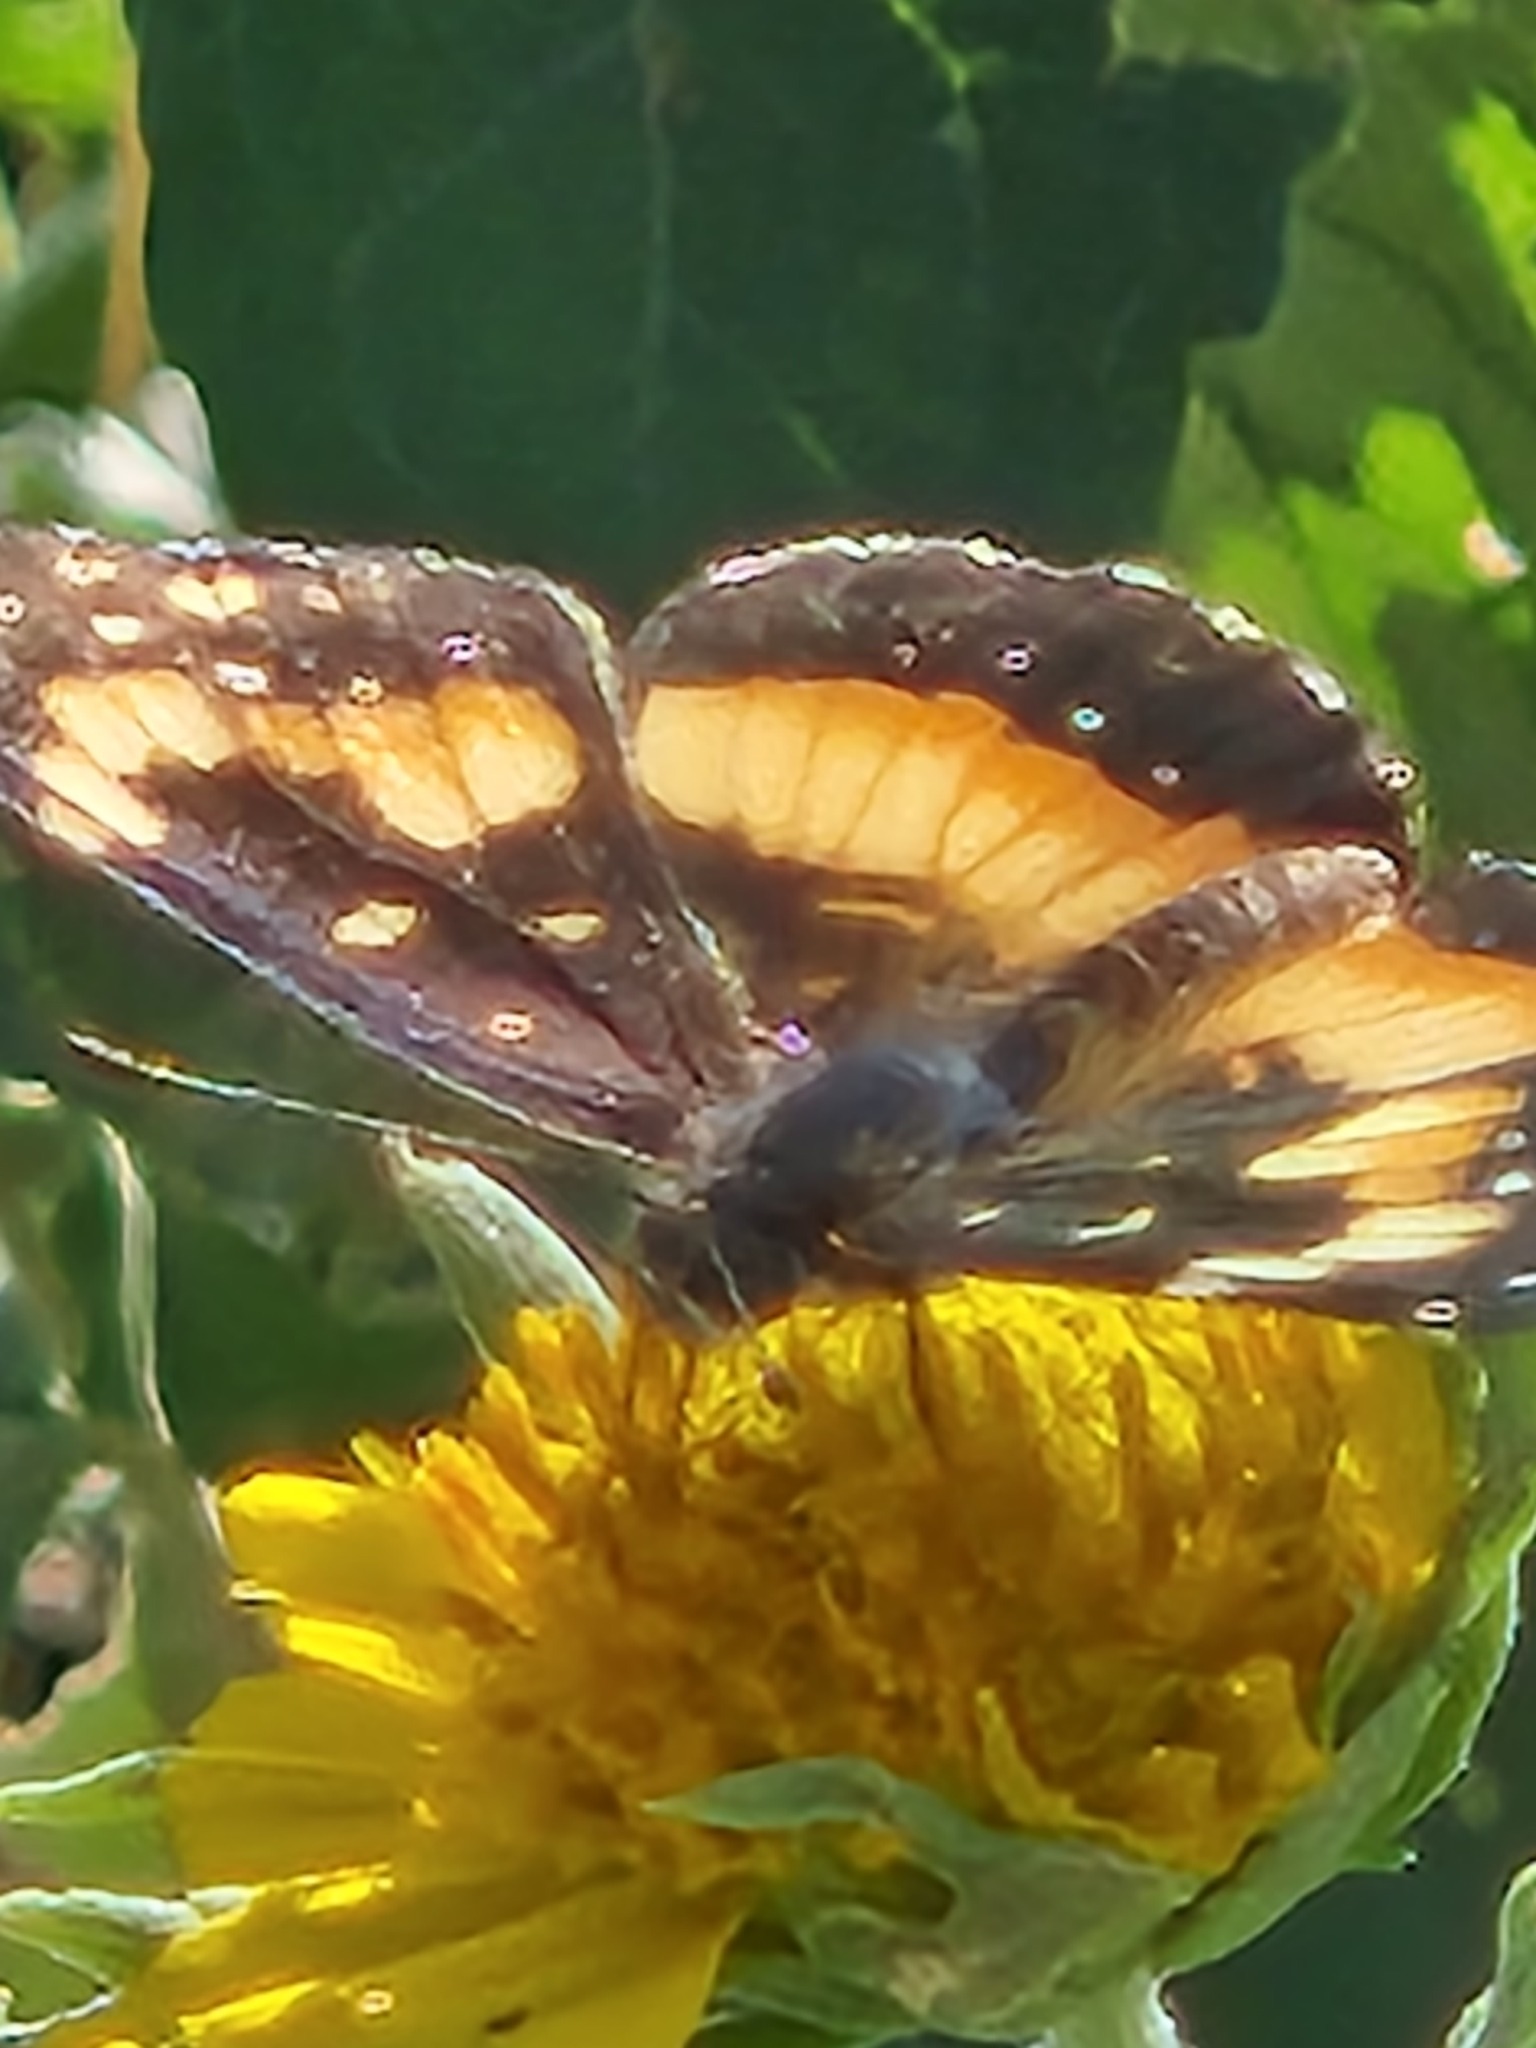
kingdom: Animalia
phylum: Arthropoda
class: Insecta
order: Lepidoptera
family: Nymphalidae
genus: Chlosyne
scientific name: Chlosyne lacinia
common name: Bordered patch
